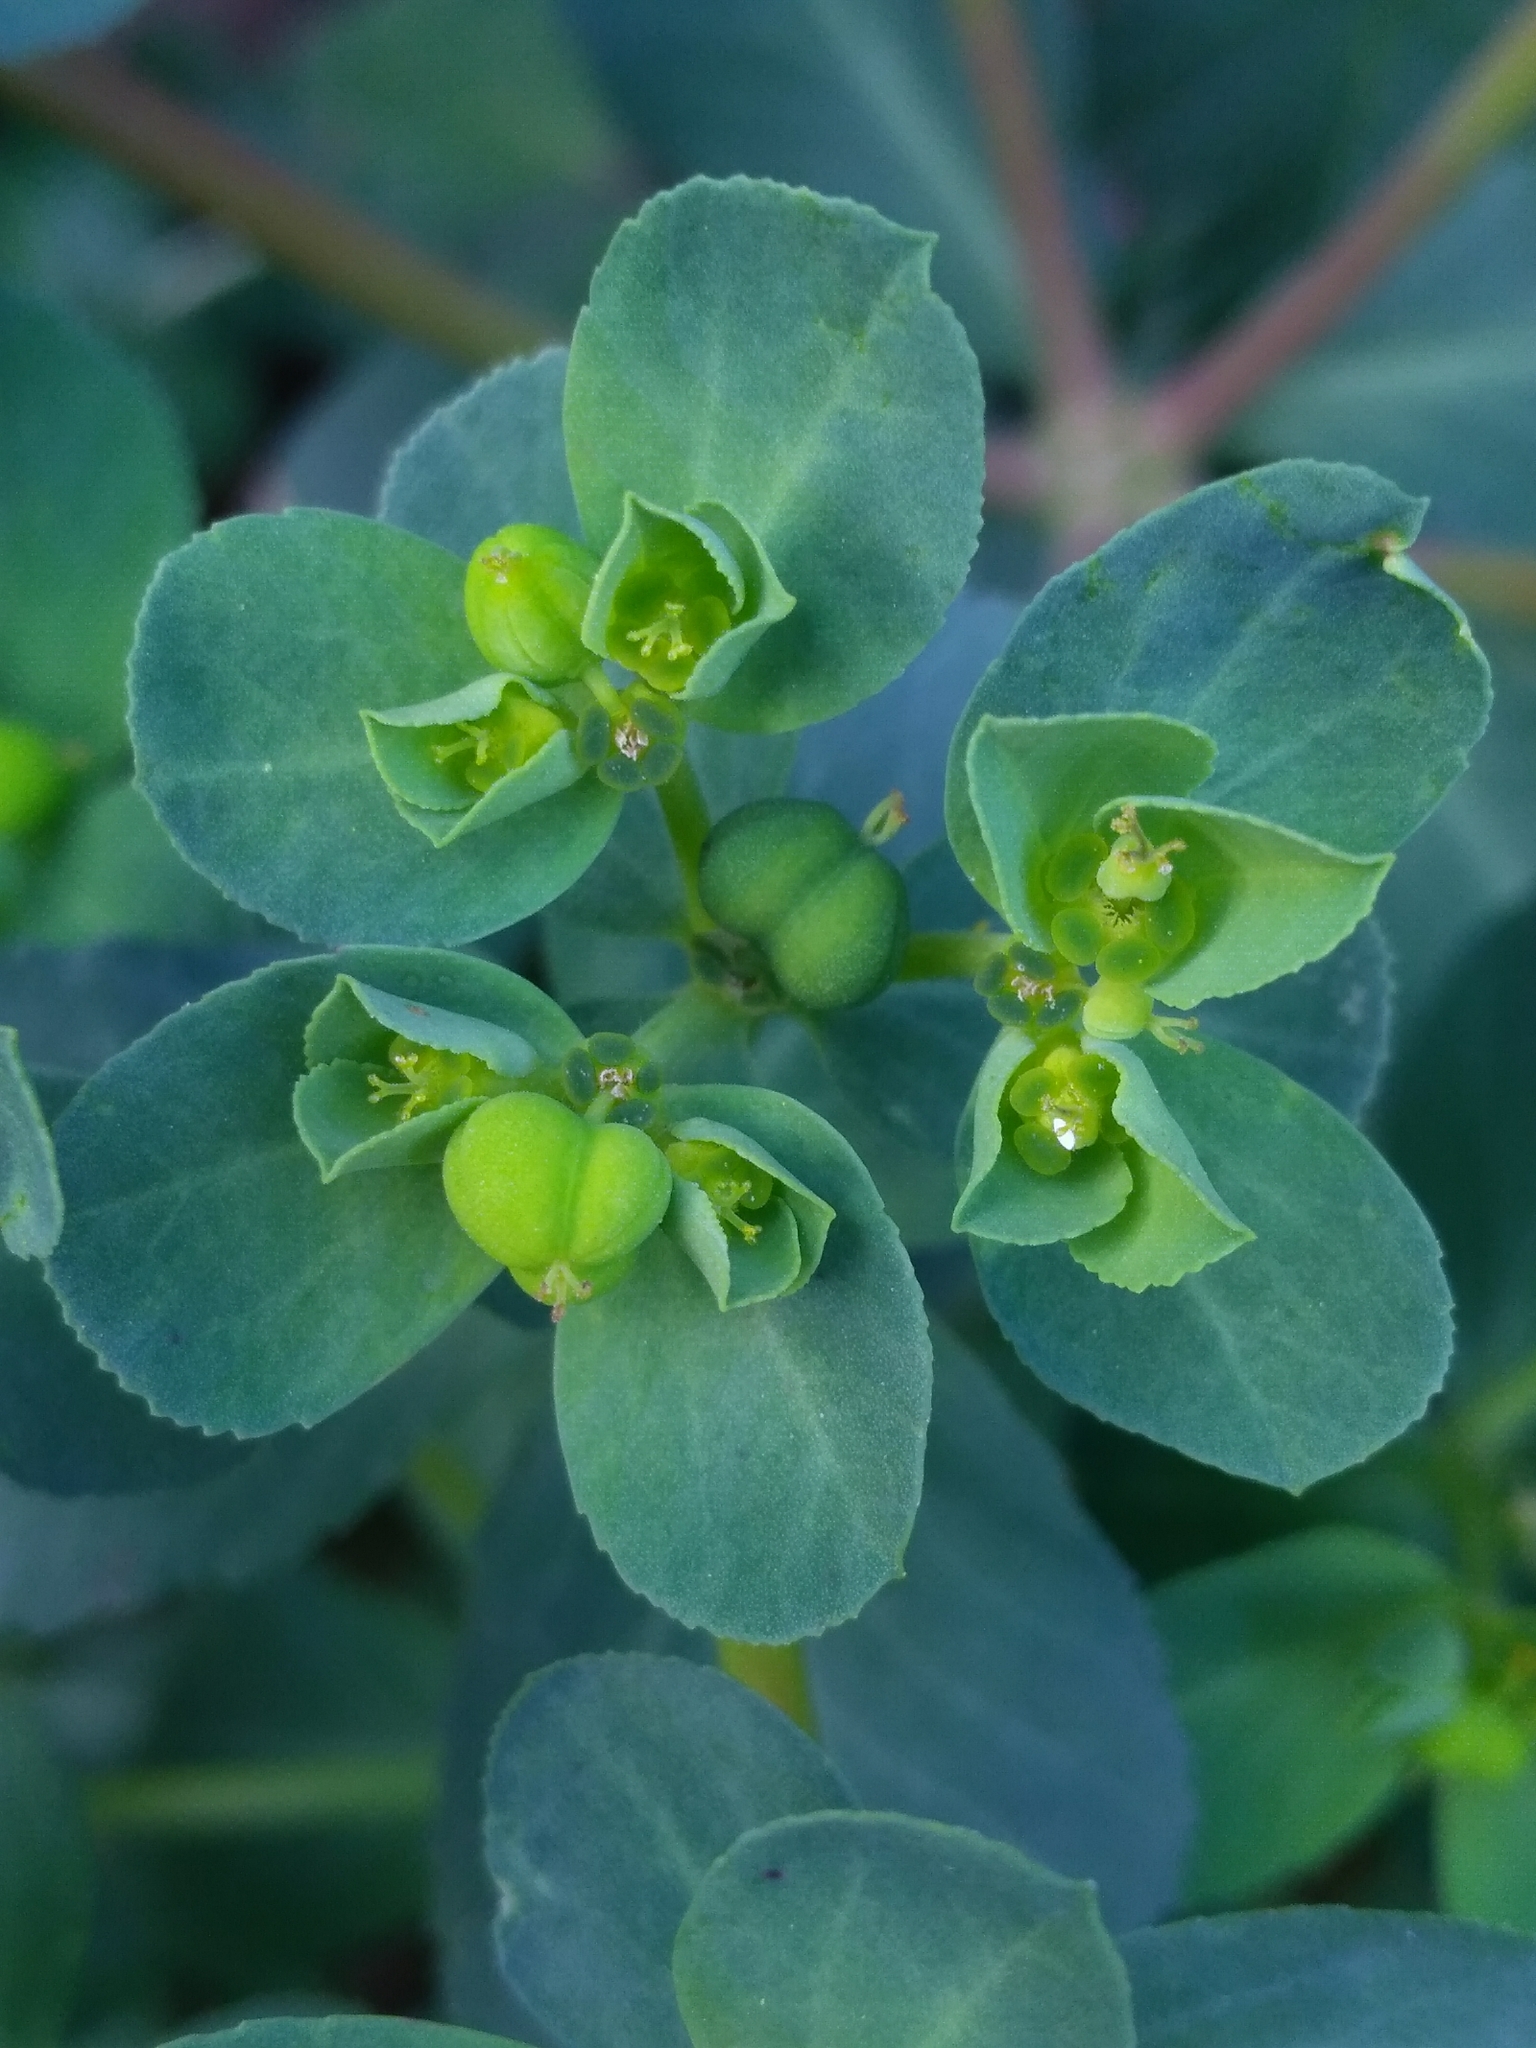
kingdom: Plantae
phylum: Tracheophyta
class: Magnoliopsida
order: Malpighiales
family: Euphorbiaceae
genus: Euphorbia
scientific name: Euphorbia helioscopia
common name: Sun spurge
